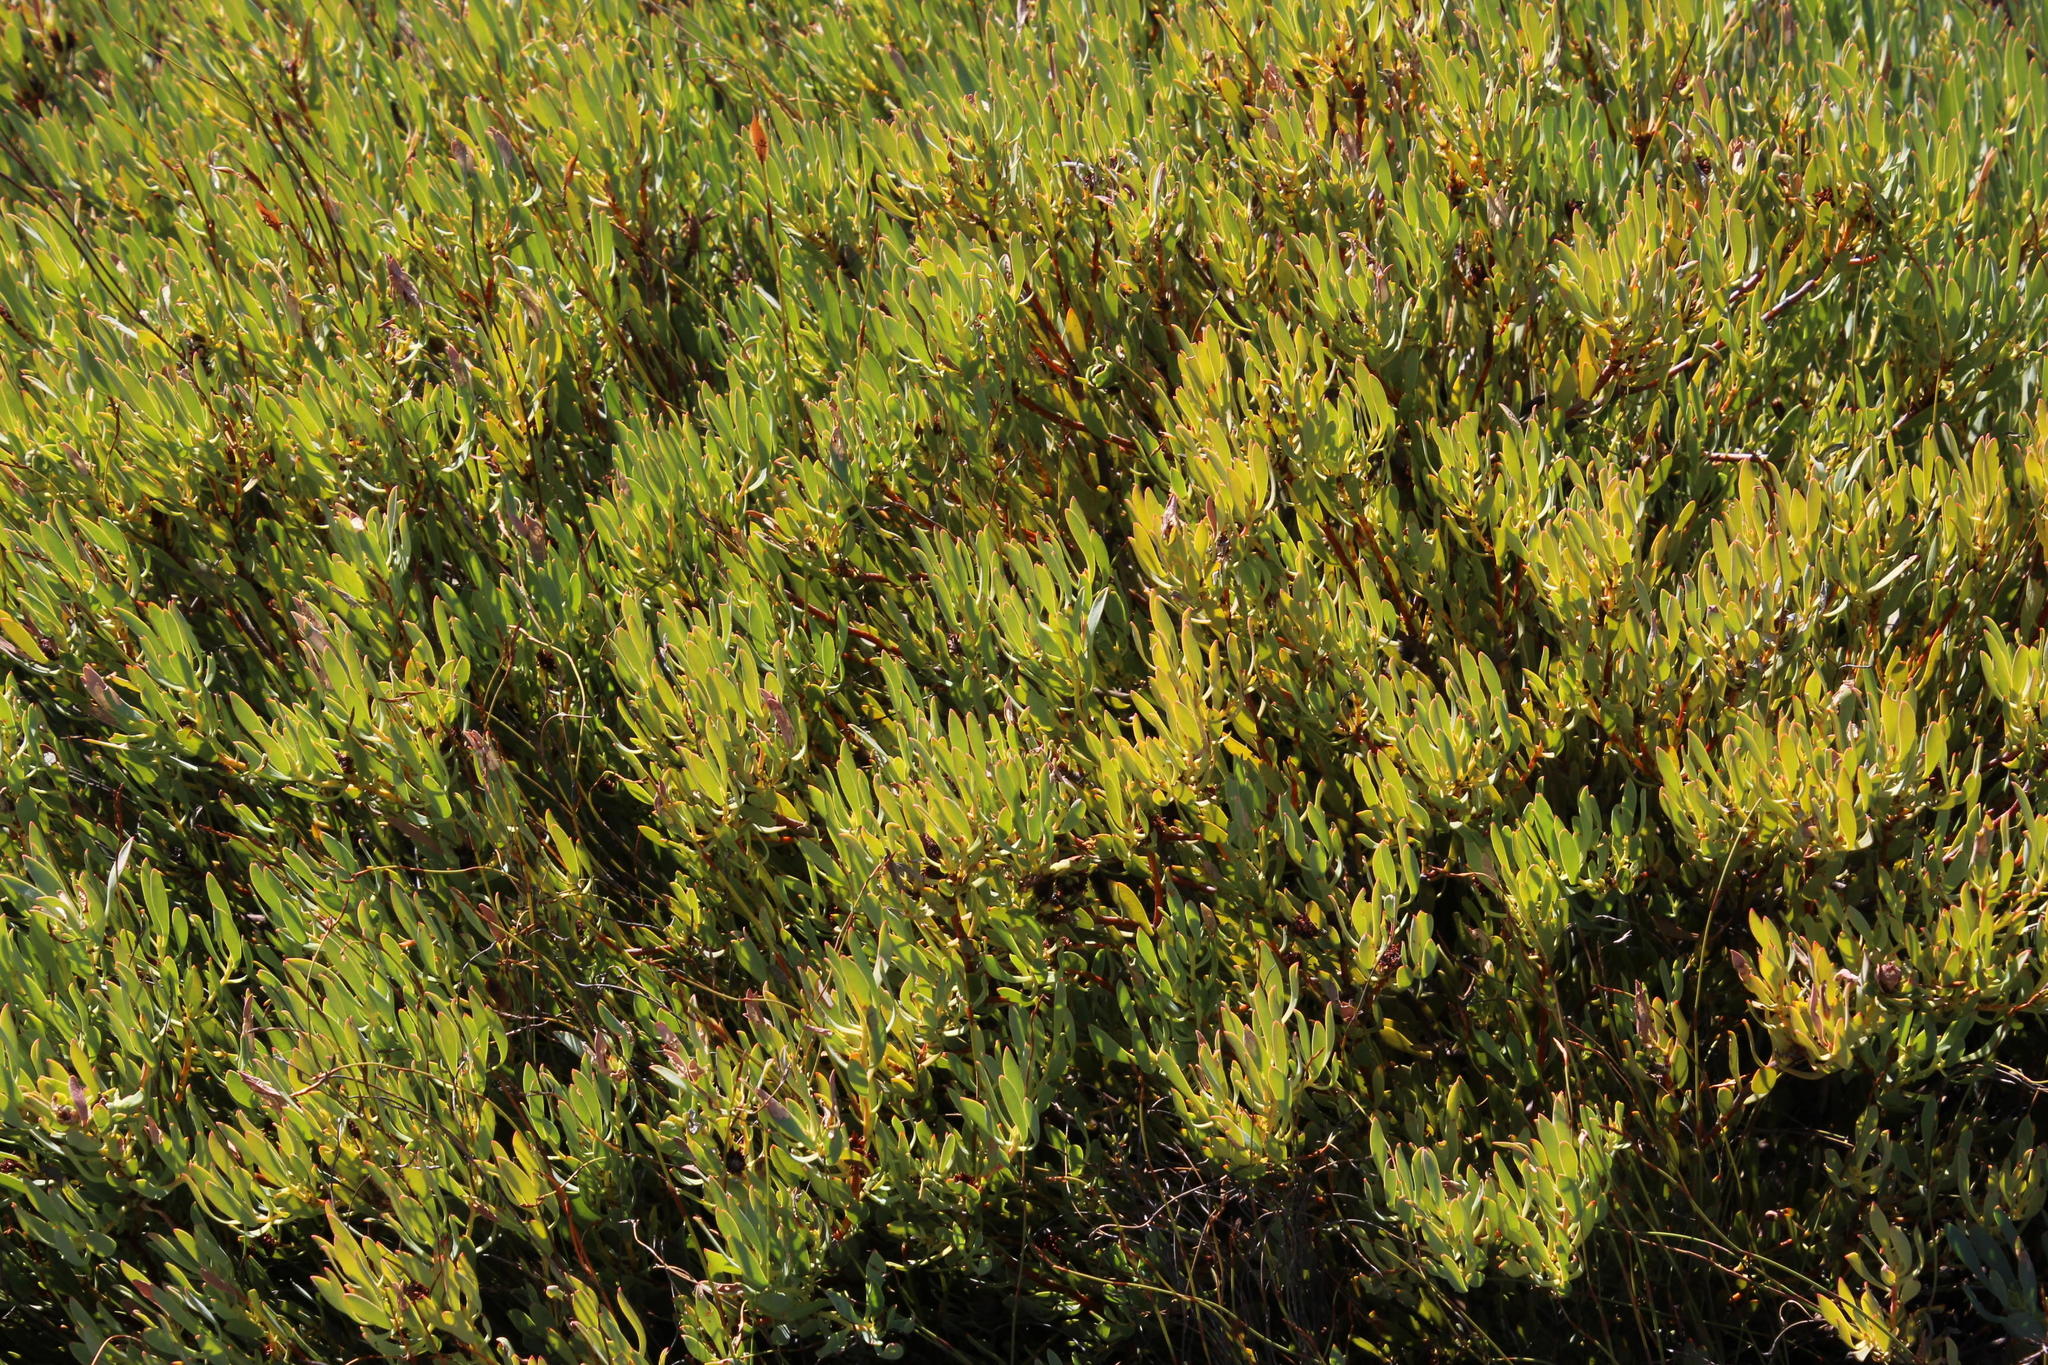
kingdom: Plantae
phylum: Tracheophyta
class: Magnoliopsida
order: Proteales
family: Proteaceae
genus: Leucadendron
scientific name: Leucadendron glaberrimum
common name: Common oily conebush
